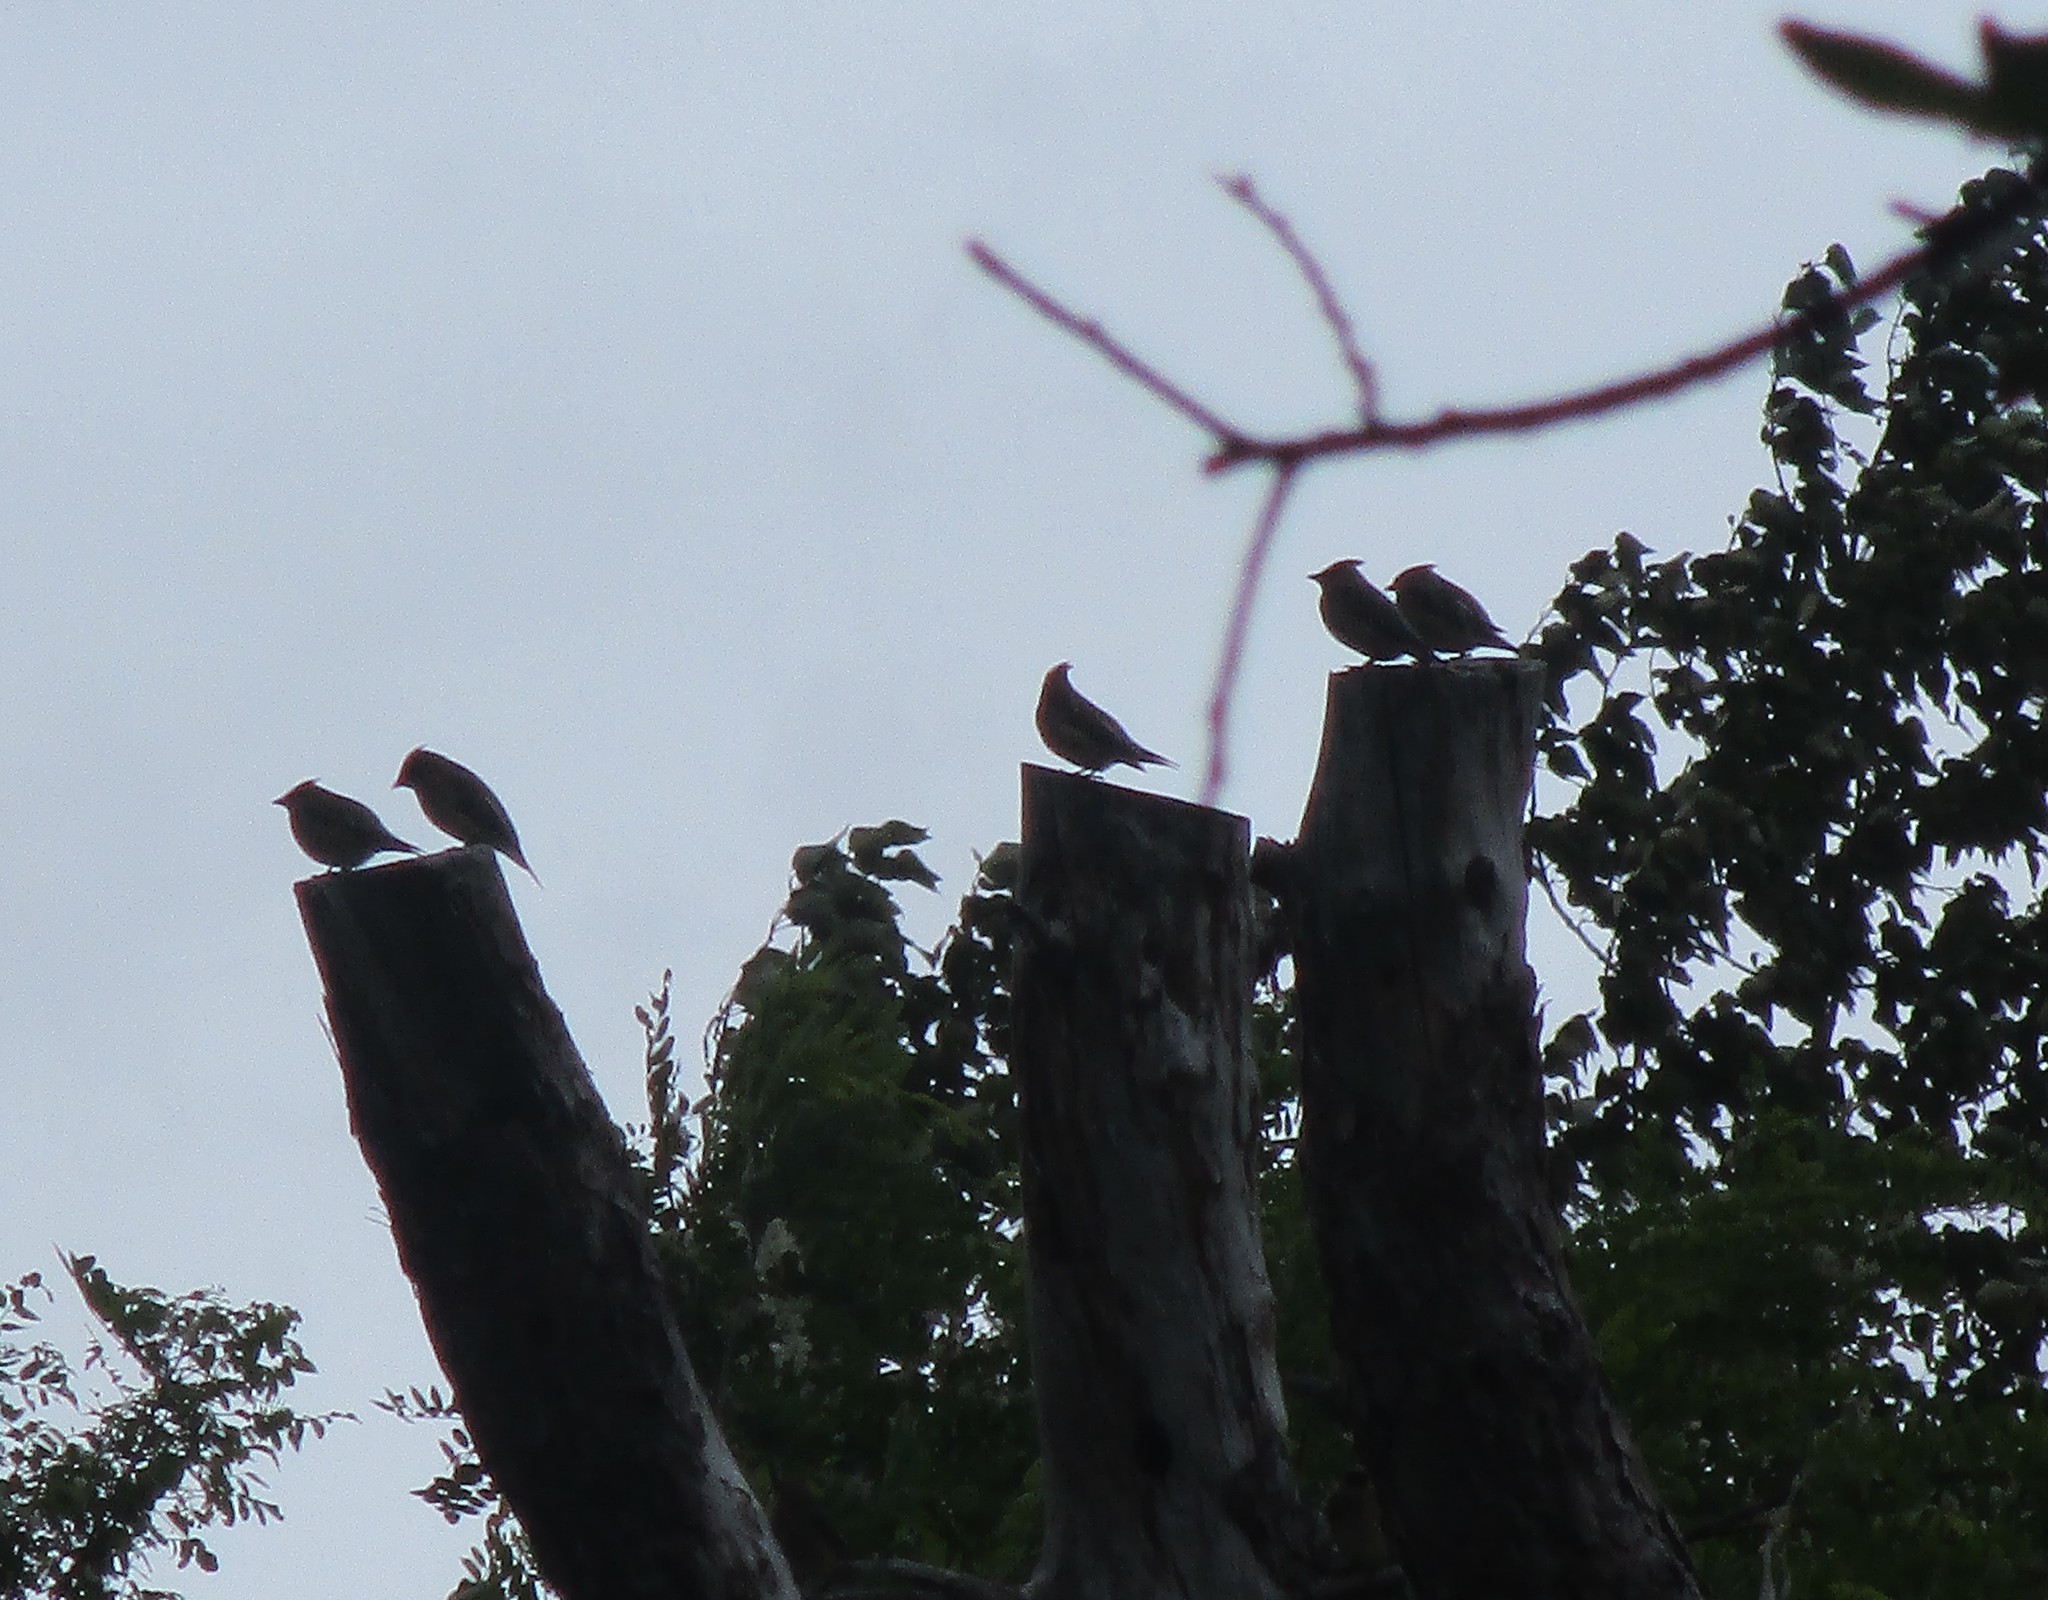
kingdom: Animalia
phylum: Chordata
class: Aves
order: Passeriformes
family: Bombycillidae
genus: Bombycilla
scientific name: Bombycilla cedrorum
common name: Cedar waxwing
